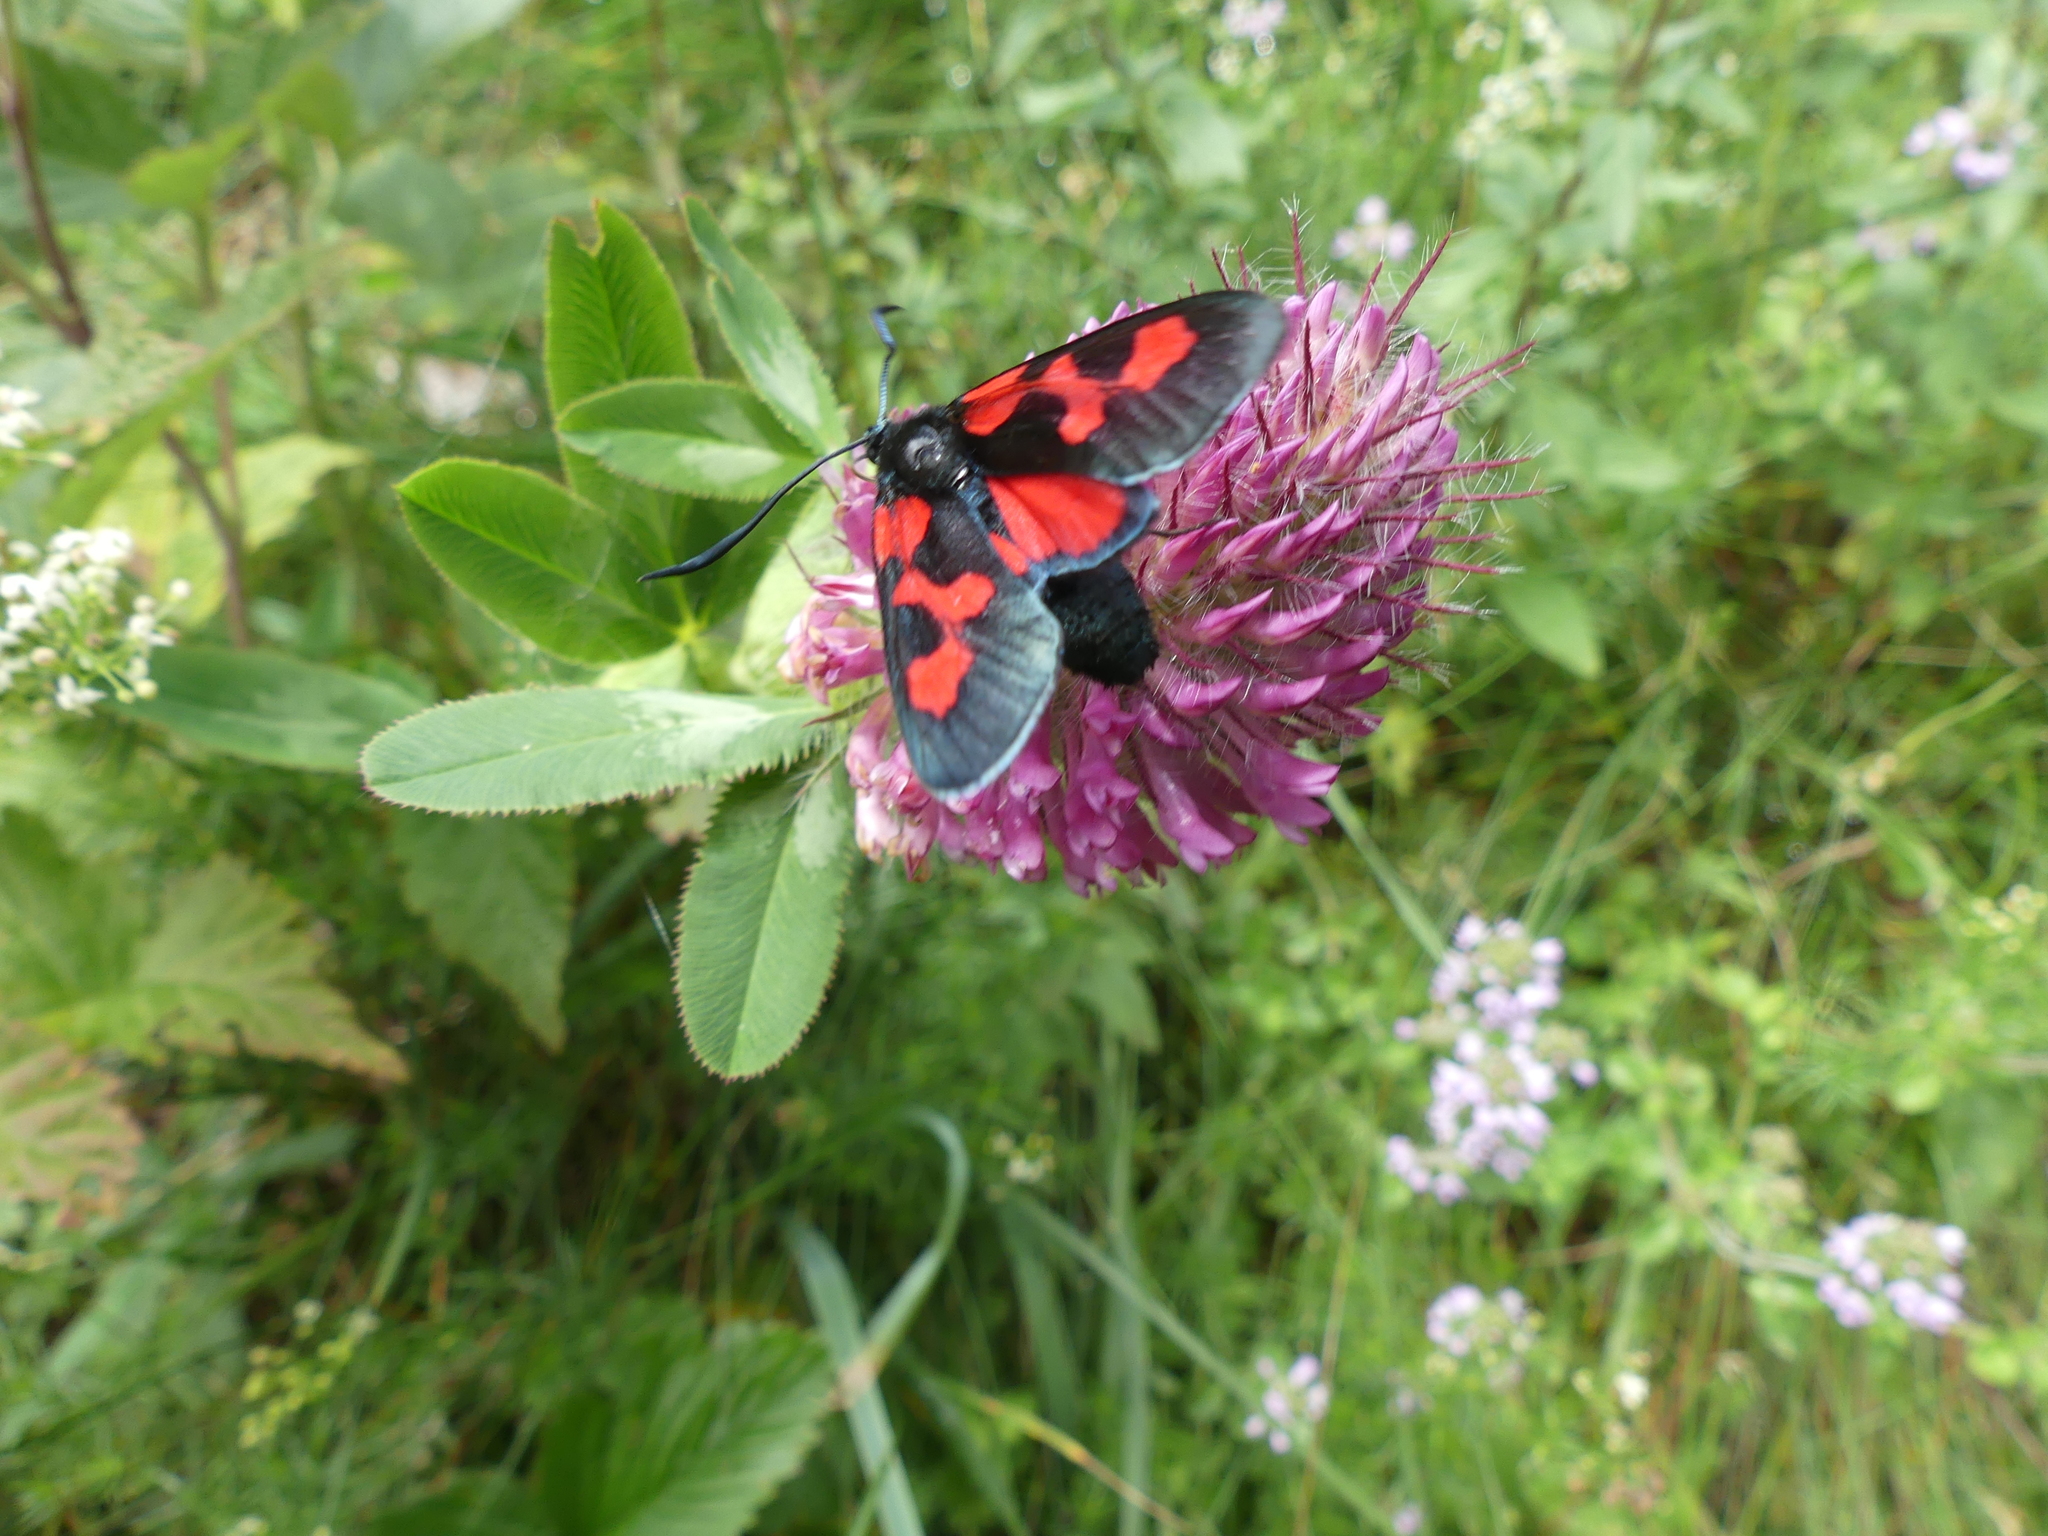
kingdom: Plantae
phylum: Tracheophyta
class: Magnoliopsida
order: Fabales
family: Fabaceae
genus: Trifolium
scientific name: Trifolium rubens
